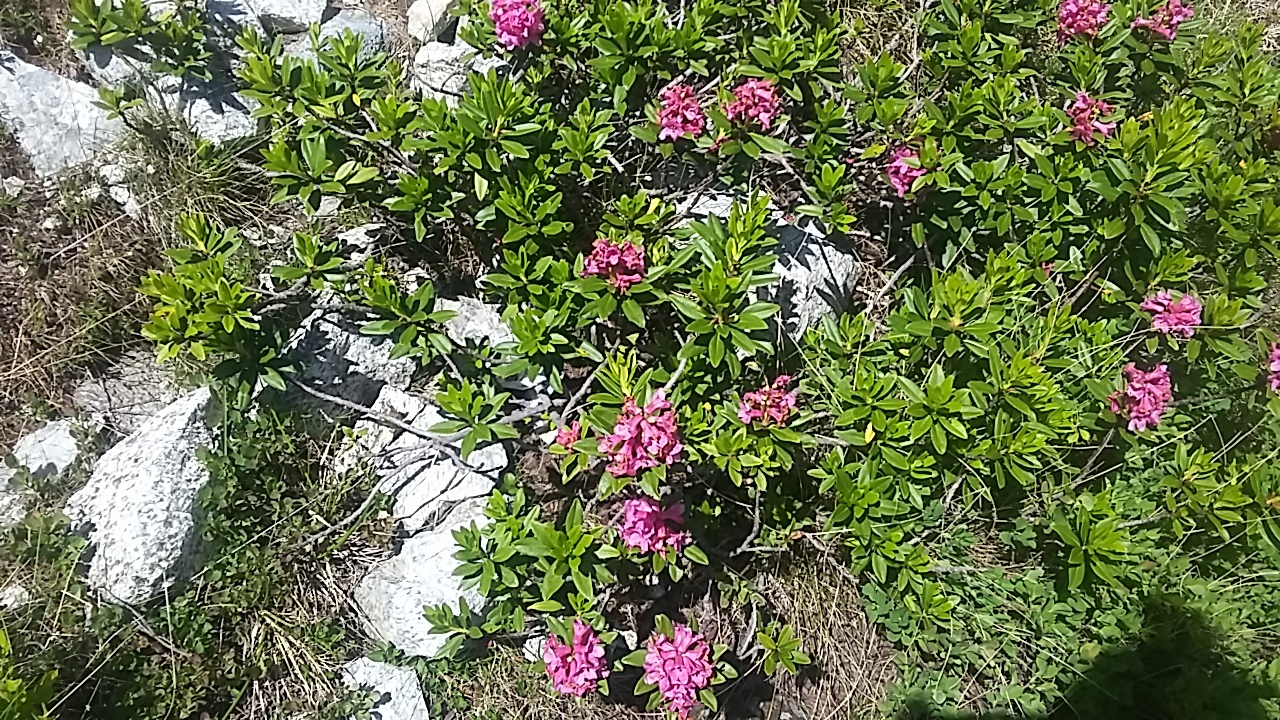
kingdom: Plantae
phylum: Tracheophyta
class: Magnoliopsida
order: Ericales
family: Ericaceae
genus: Rhododendron
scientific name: Rhododendron ferrugineum
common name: Alpenrose
